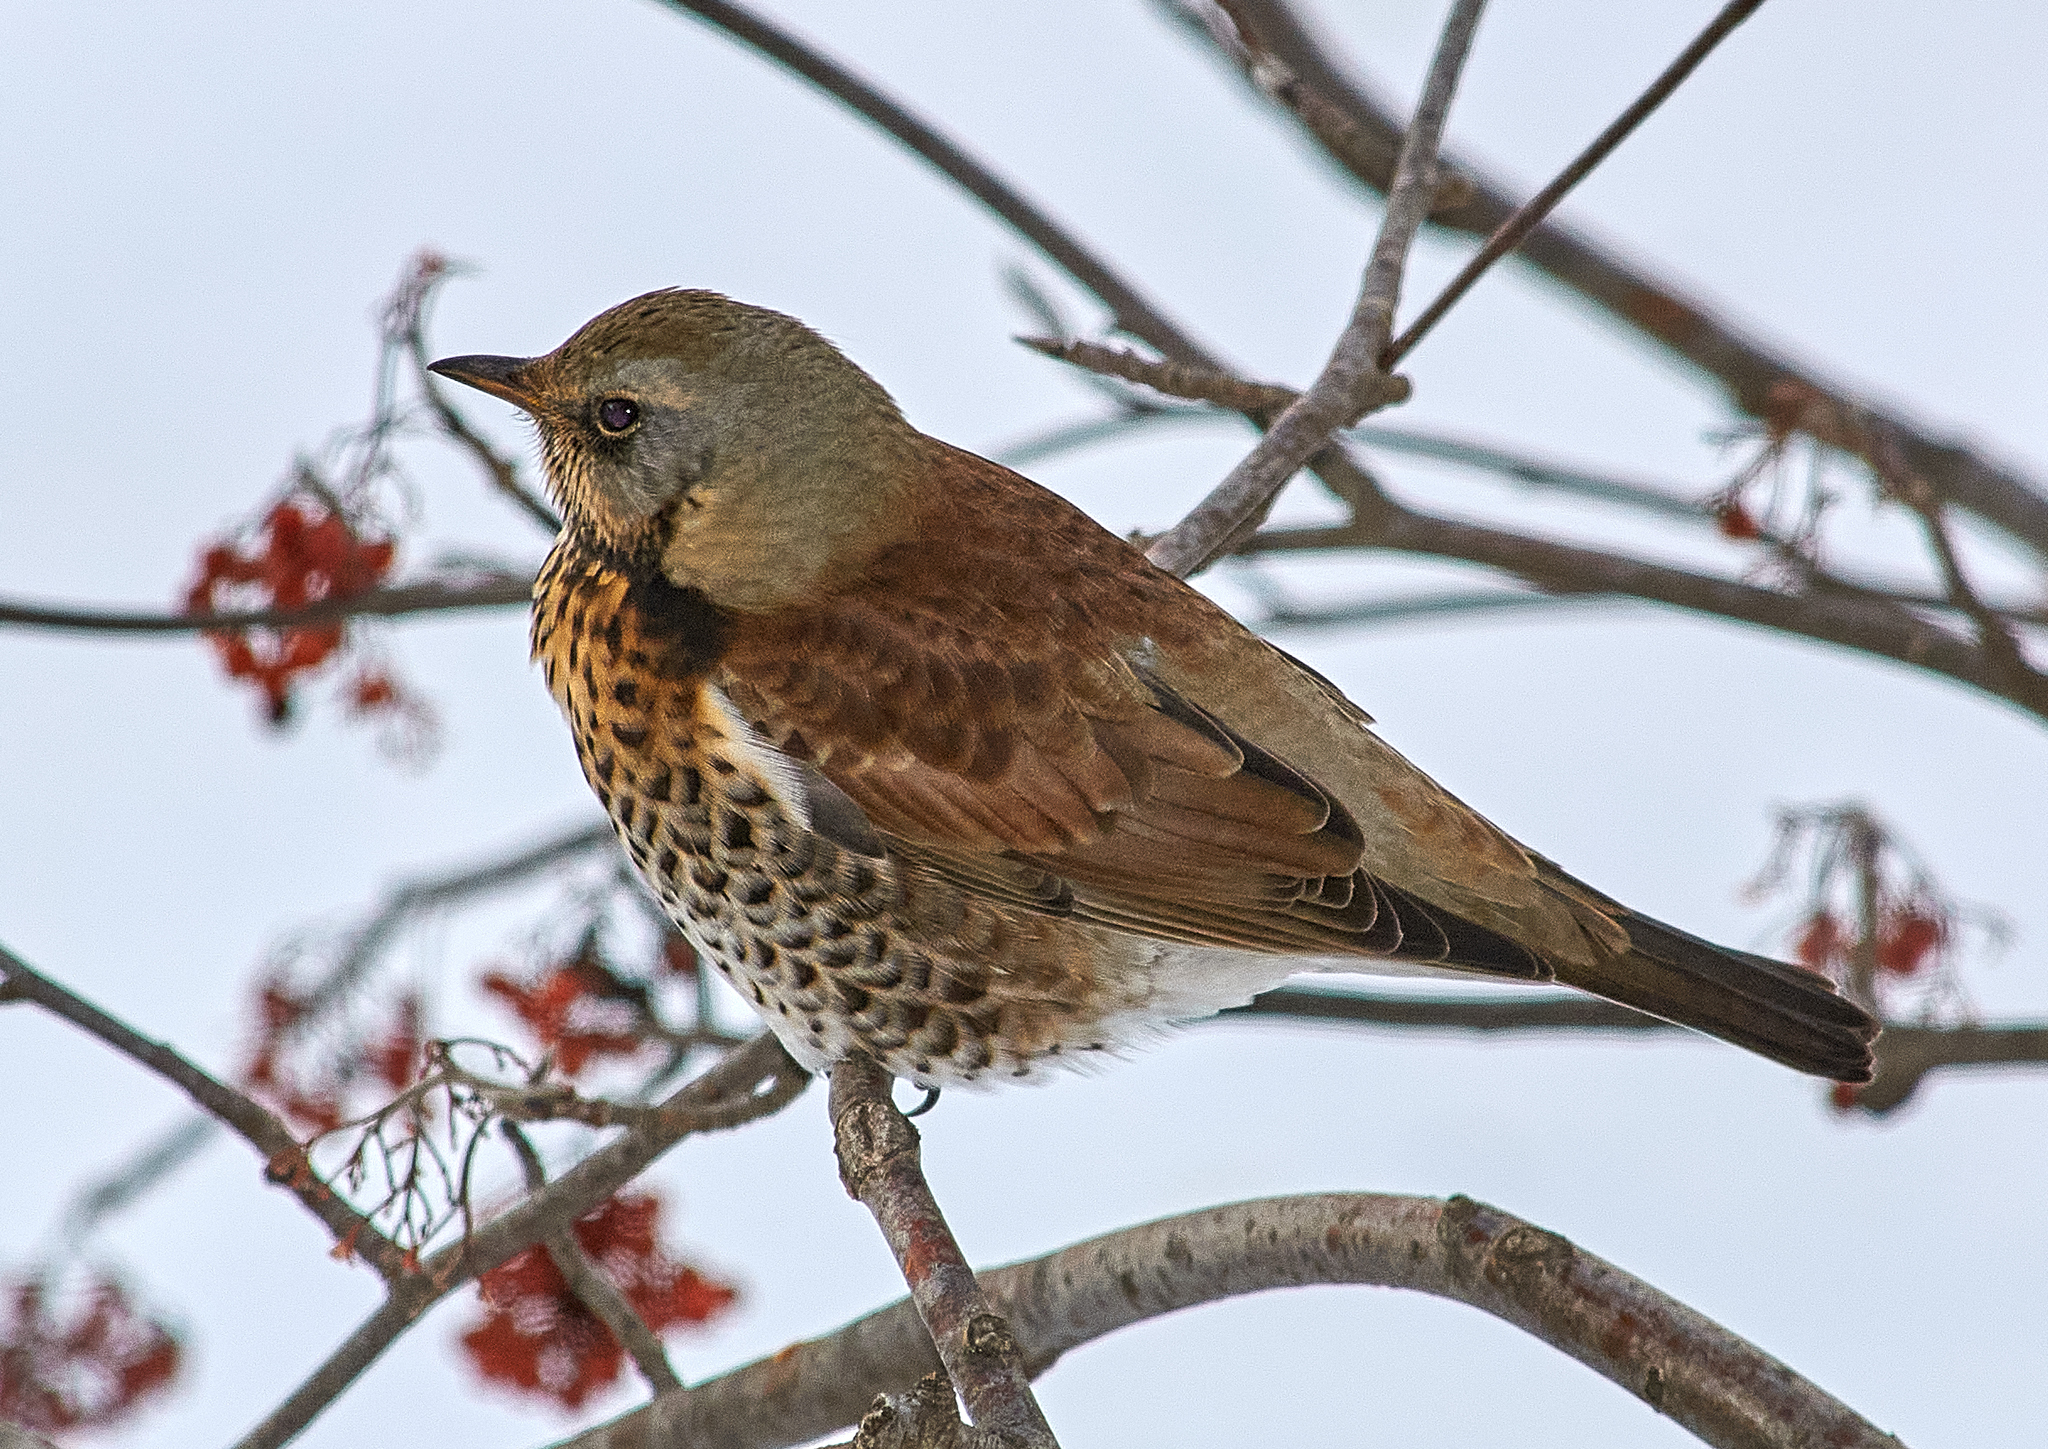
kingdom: Animalia
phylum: Chordata
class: Aves
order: Passeriformes
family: Turdidae
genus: Turdus
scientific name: Turdus pilaris
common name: Fieldfare
